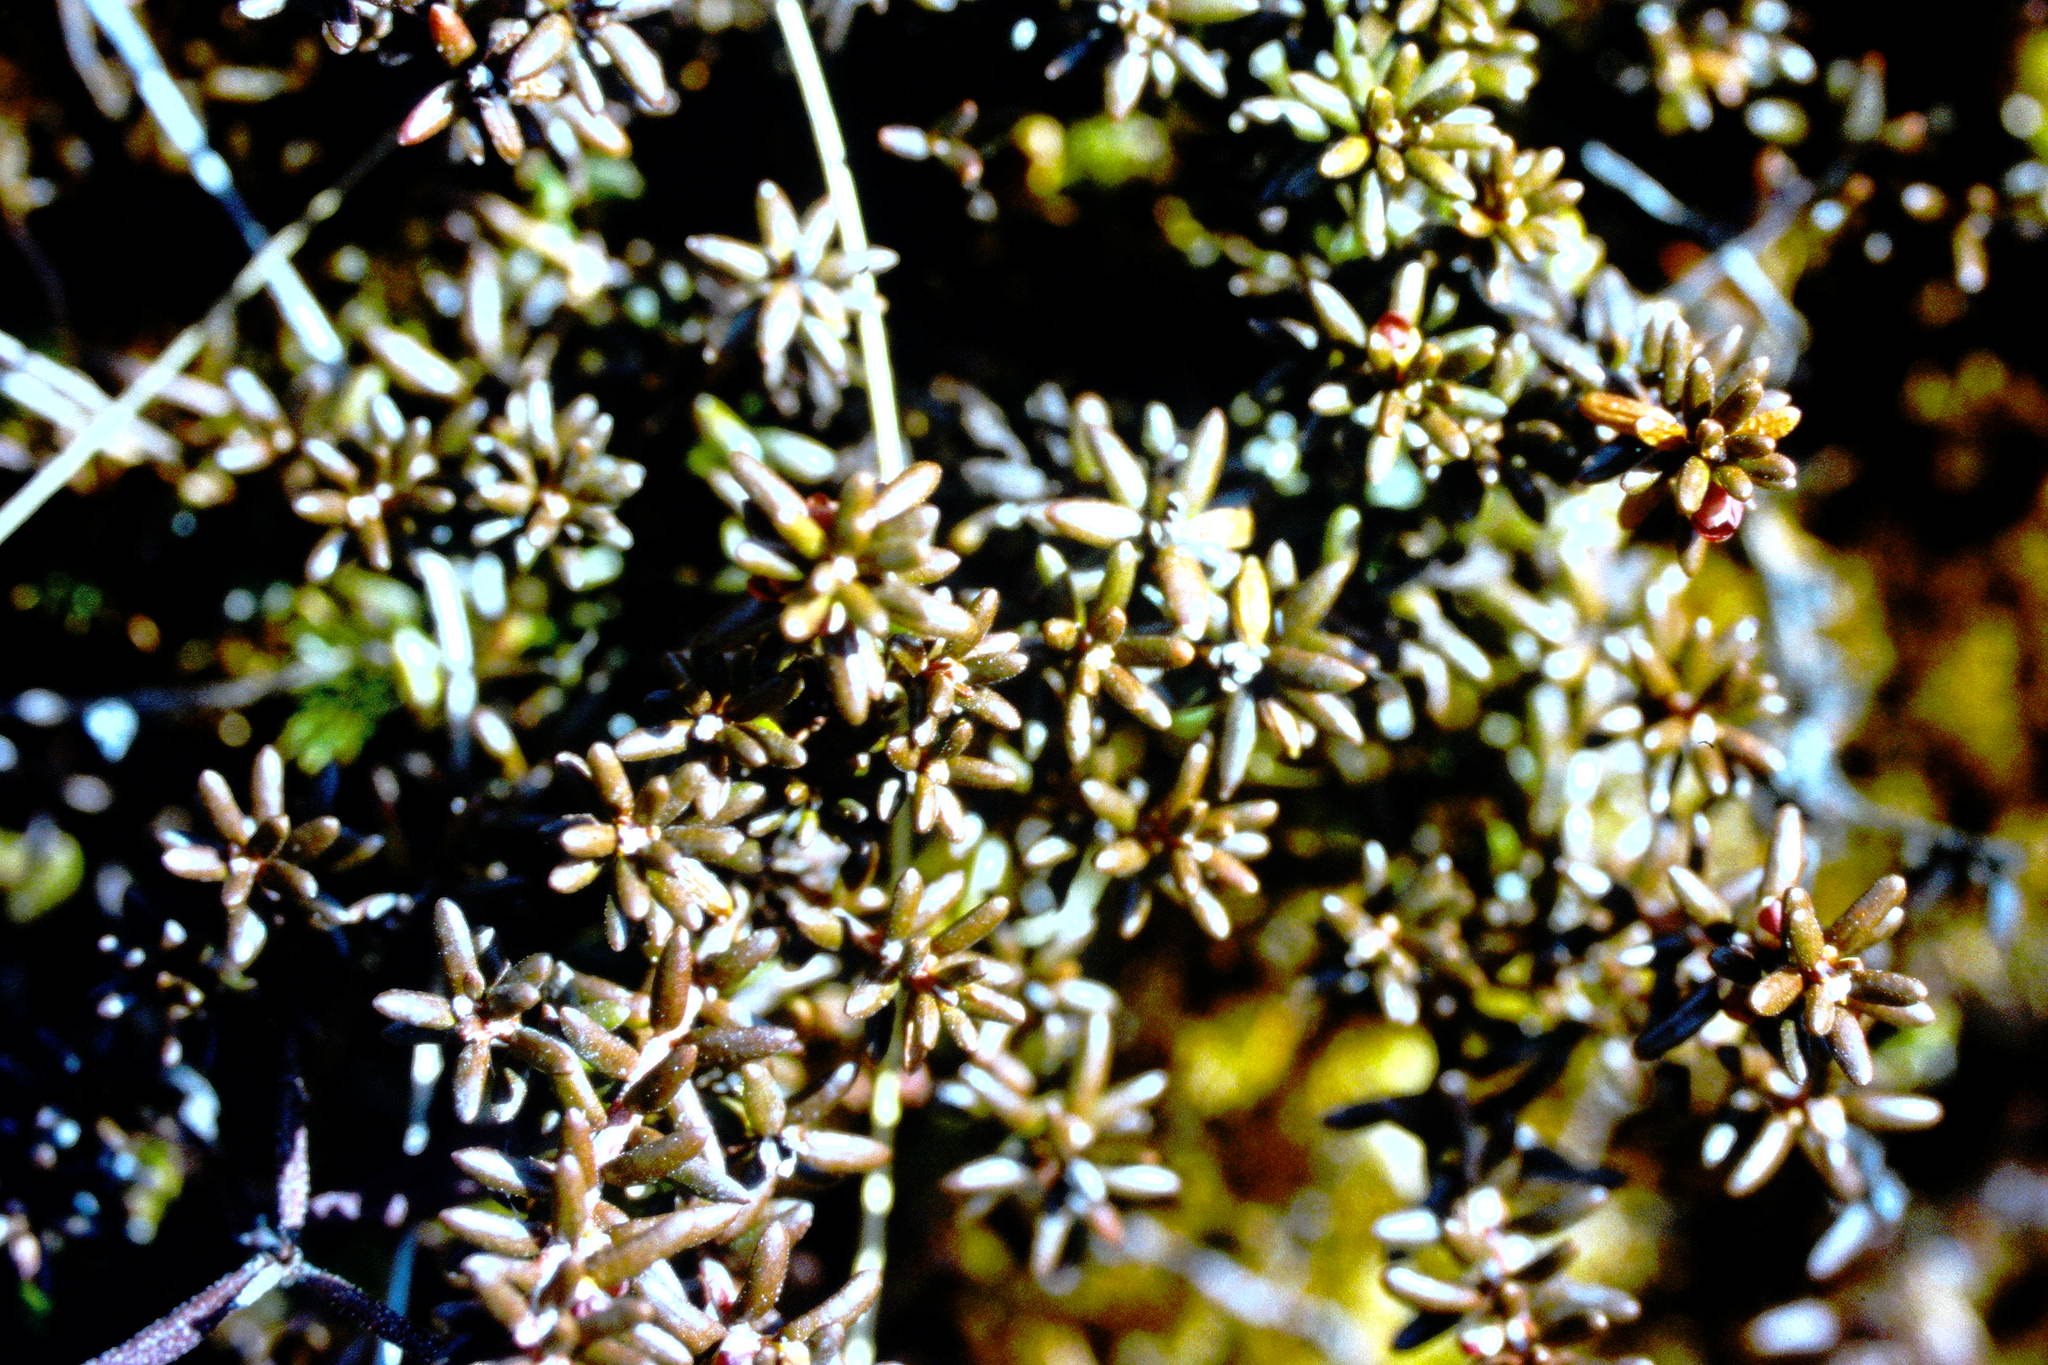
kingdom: Plantae
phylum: Tracheophyta
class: Magnoliopsida
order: Ericales
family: Ericaceae
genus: Empetrum
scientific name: Empetrum nigrum
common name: Black crowberry
